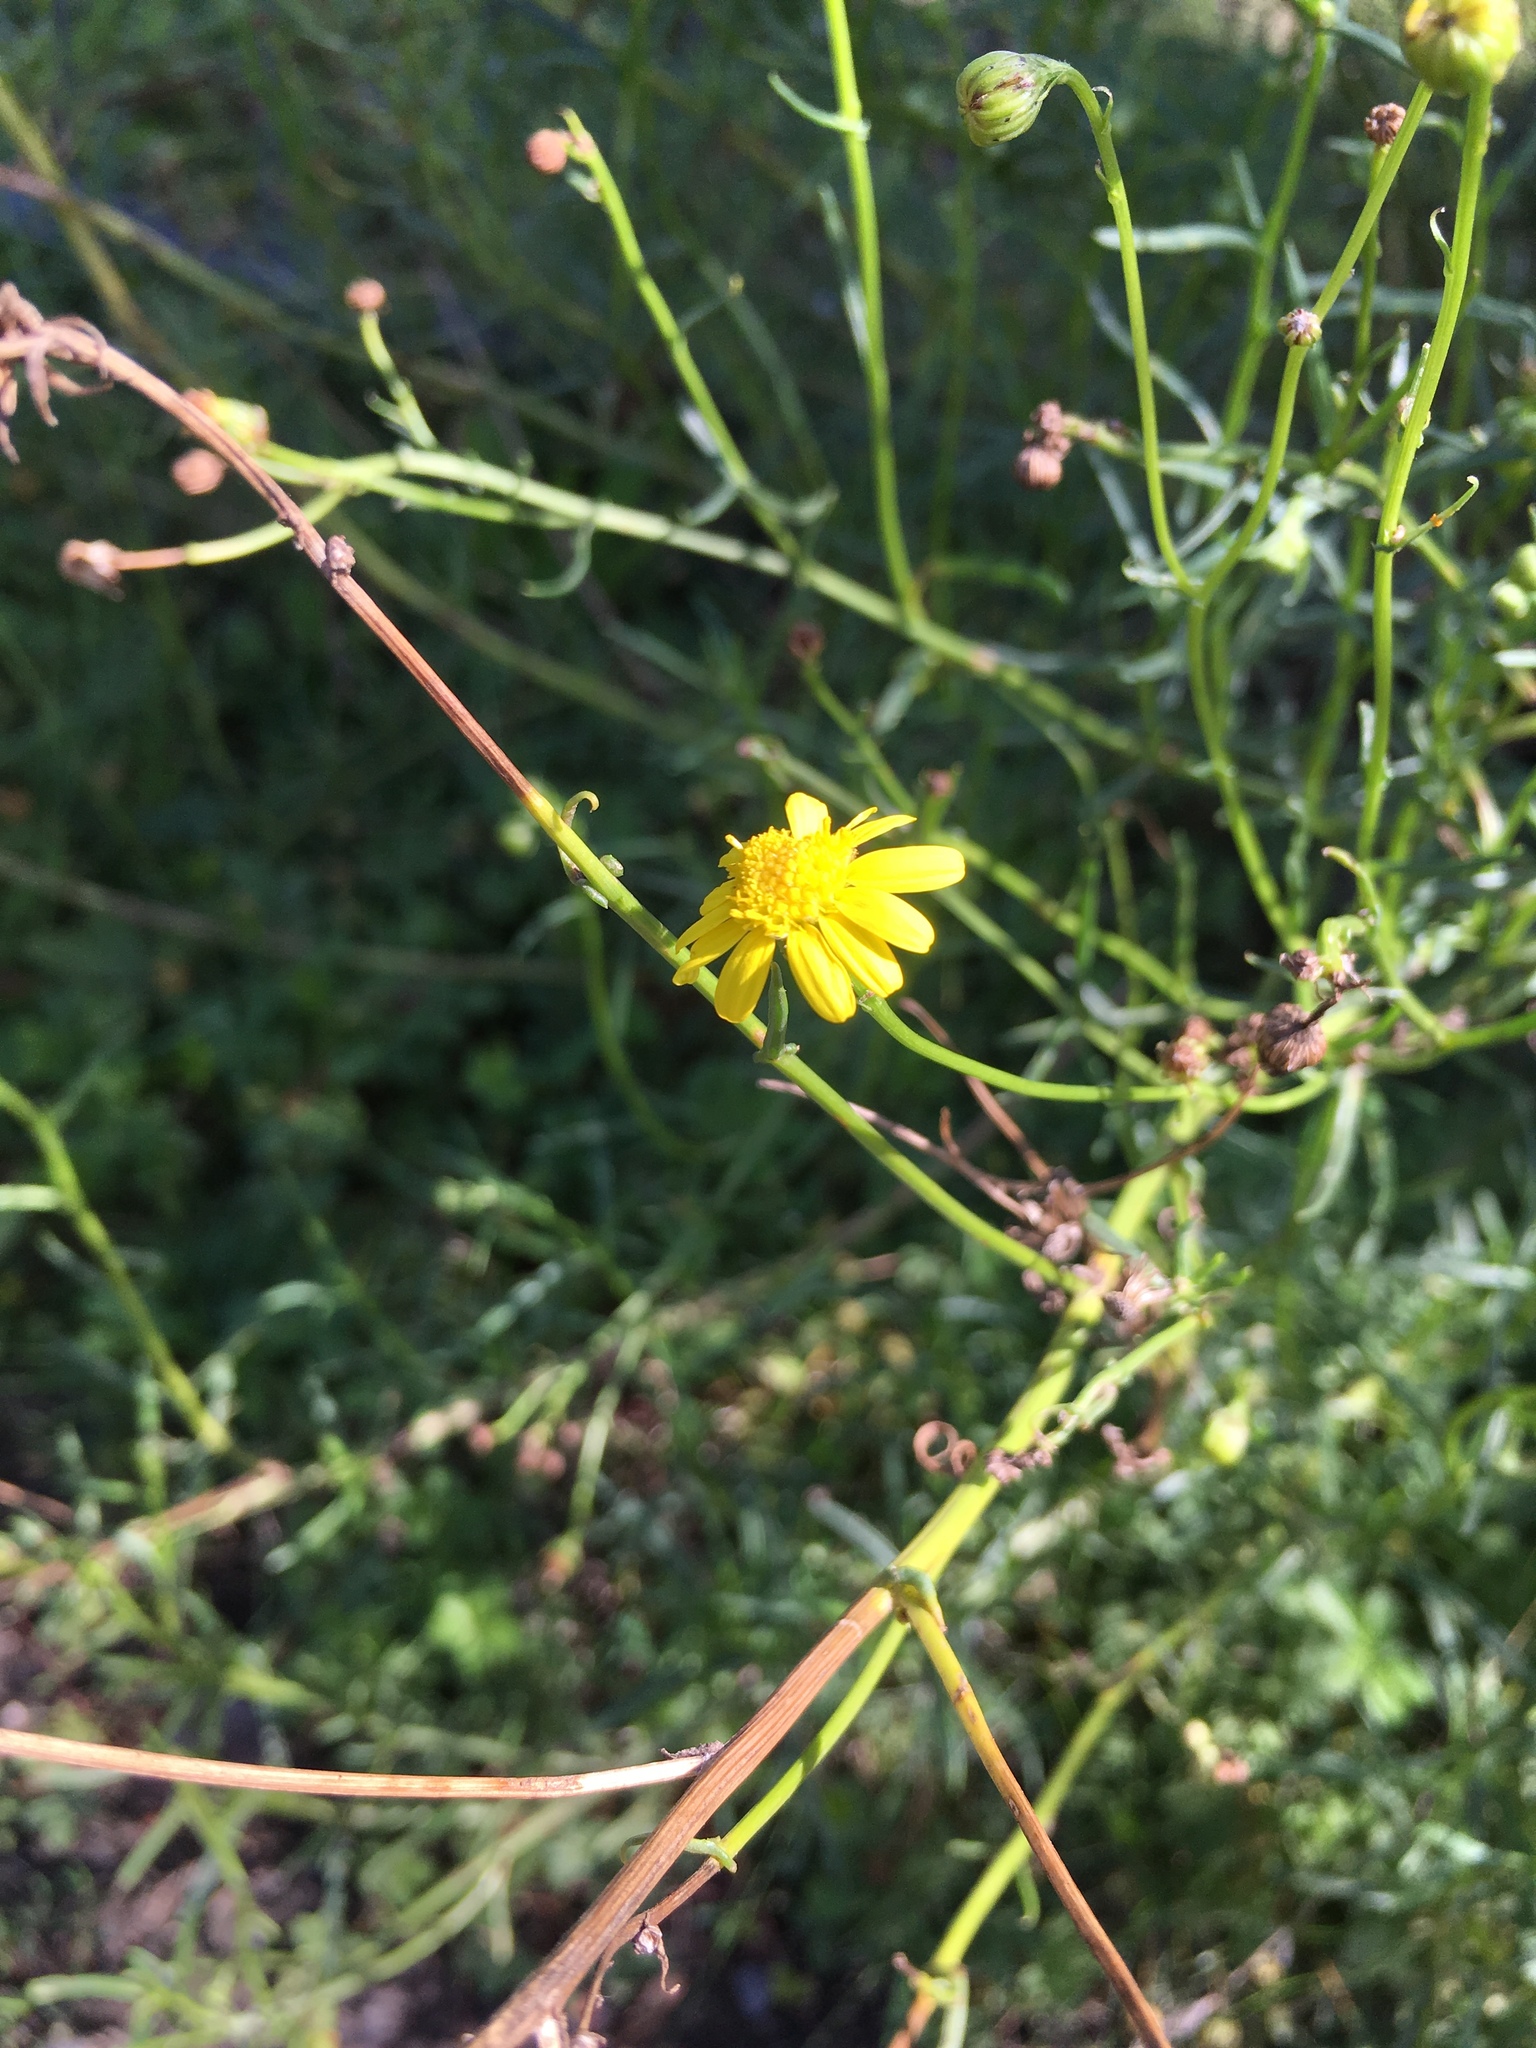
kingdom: Plantae
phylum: Tracheophyta
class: Magnoliopsida
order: Asterales
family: Asteraceae
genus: Senecio
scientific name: Senecio inaequidens
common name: Narrow-leaved ragwort
